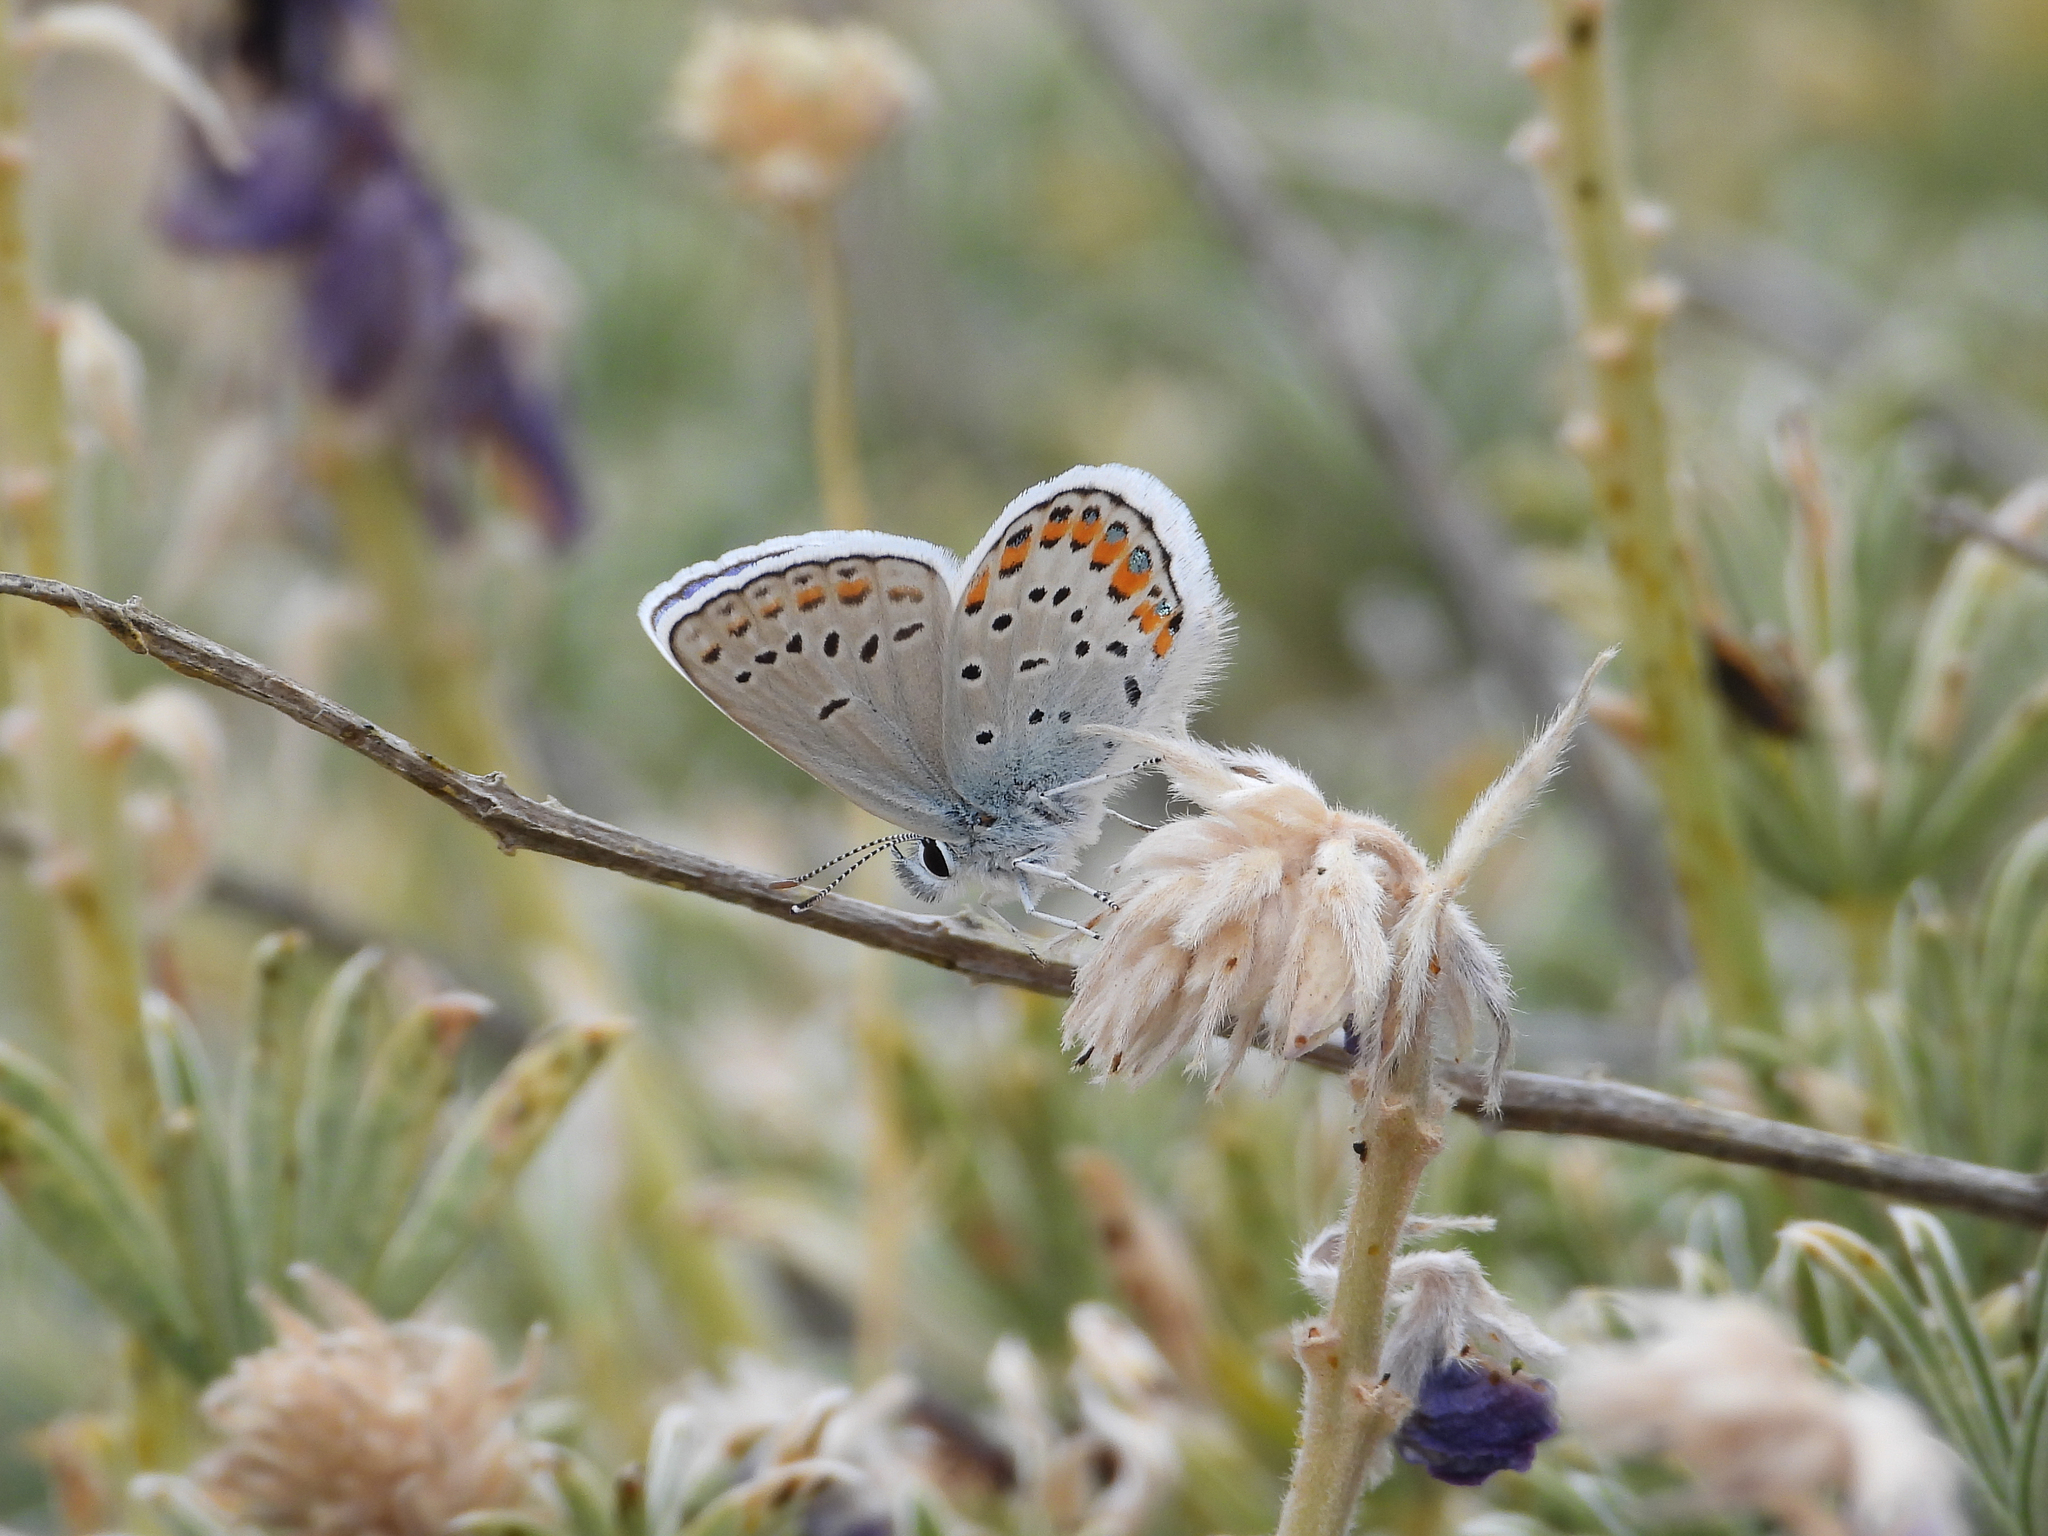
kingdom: Animalia
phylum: Arthropoda
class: Insecta
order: Lepidoptera
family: Lycaenidae
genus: Lycaeides
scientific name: Lycaeides melissa
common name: Melissa blue
